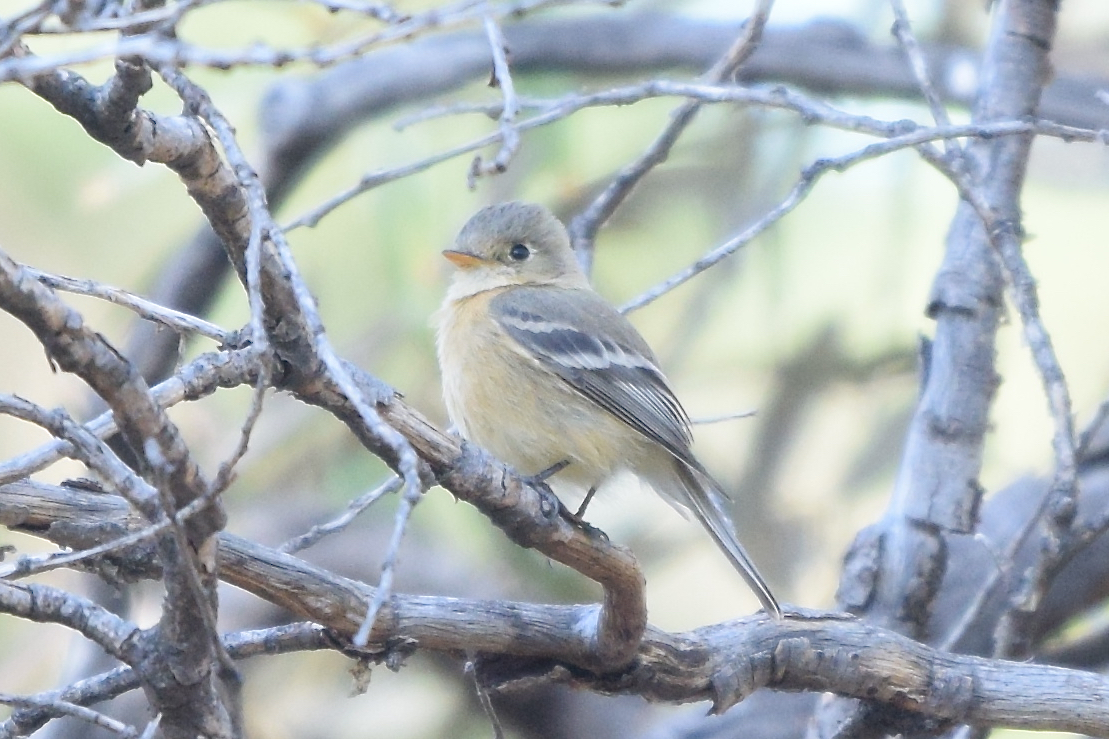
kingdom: Animalia
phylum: Chordata
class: Aves
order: Passeriformes
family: Tyrannidae
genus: Empidonax
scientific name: Empidonax fulvifrons
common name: Buff-breasted flycatcher
